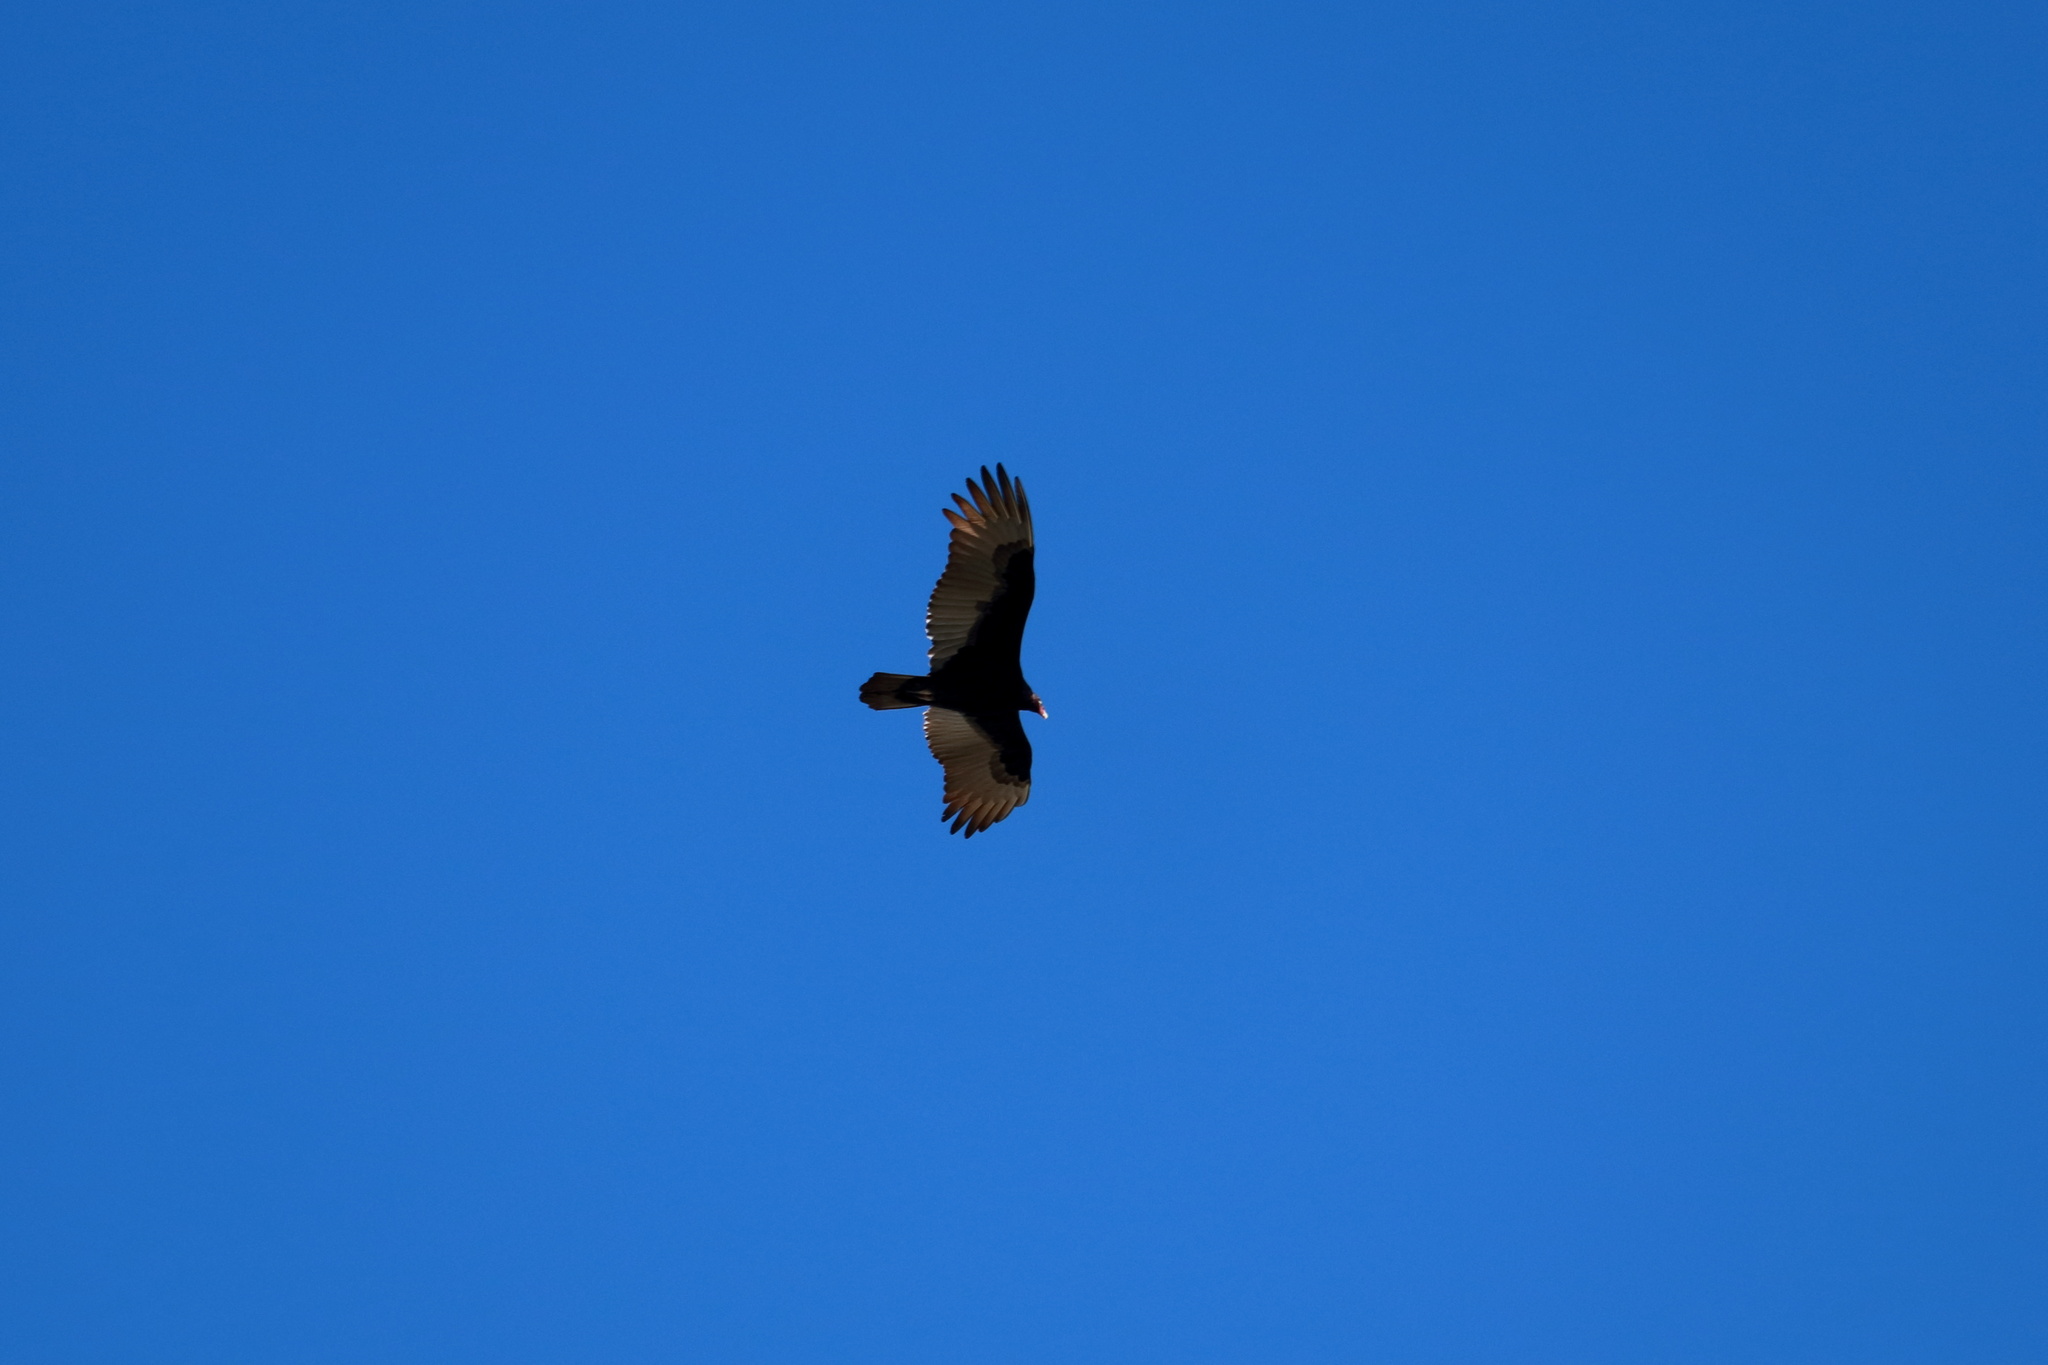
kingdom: Animalia
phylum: Chordata
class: Aves
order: Accipitriformes
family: Cathartidae
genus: Cathartes
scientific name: Cathartes aura
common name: Turkey vulture
